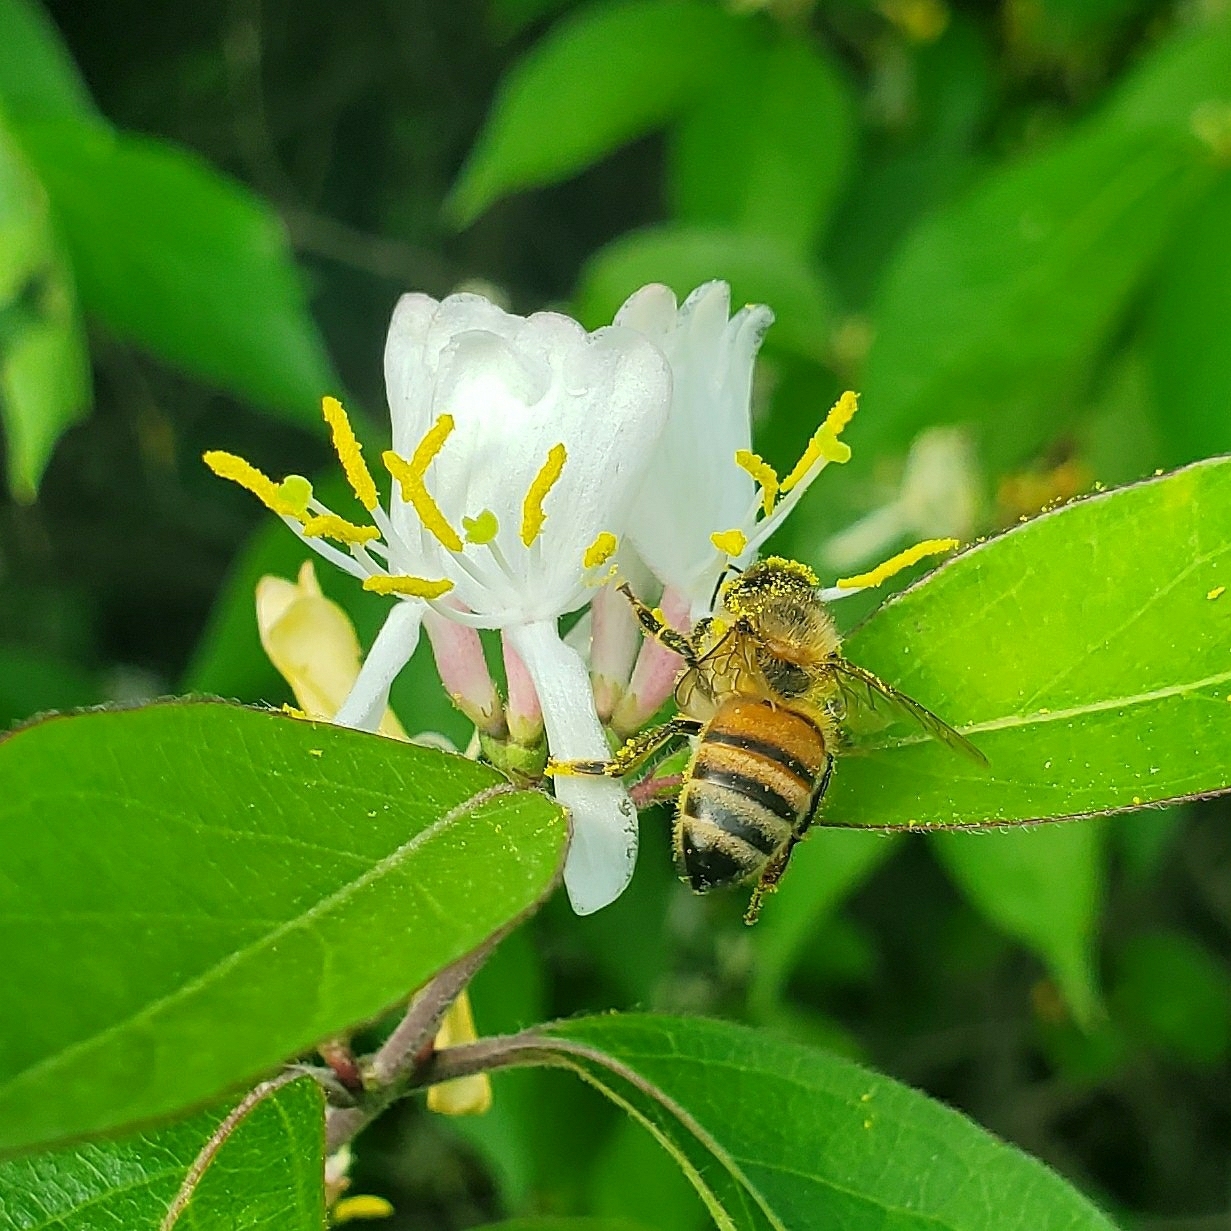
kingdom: Animalia
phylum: Arthropoda
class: Insecta
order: Hymenoptera
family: Apidae
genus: Apis
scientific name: Apis mellifera
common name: Honey bee
